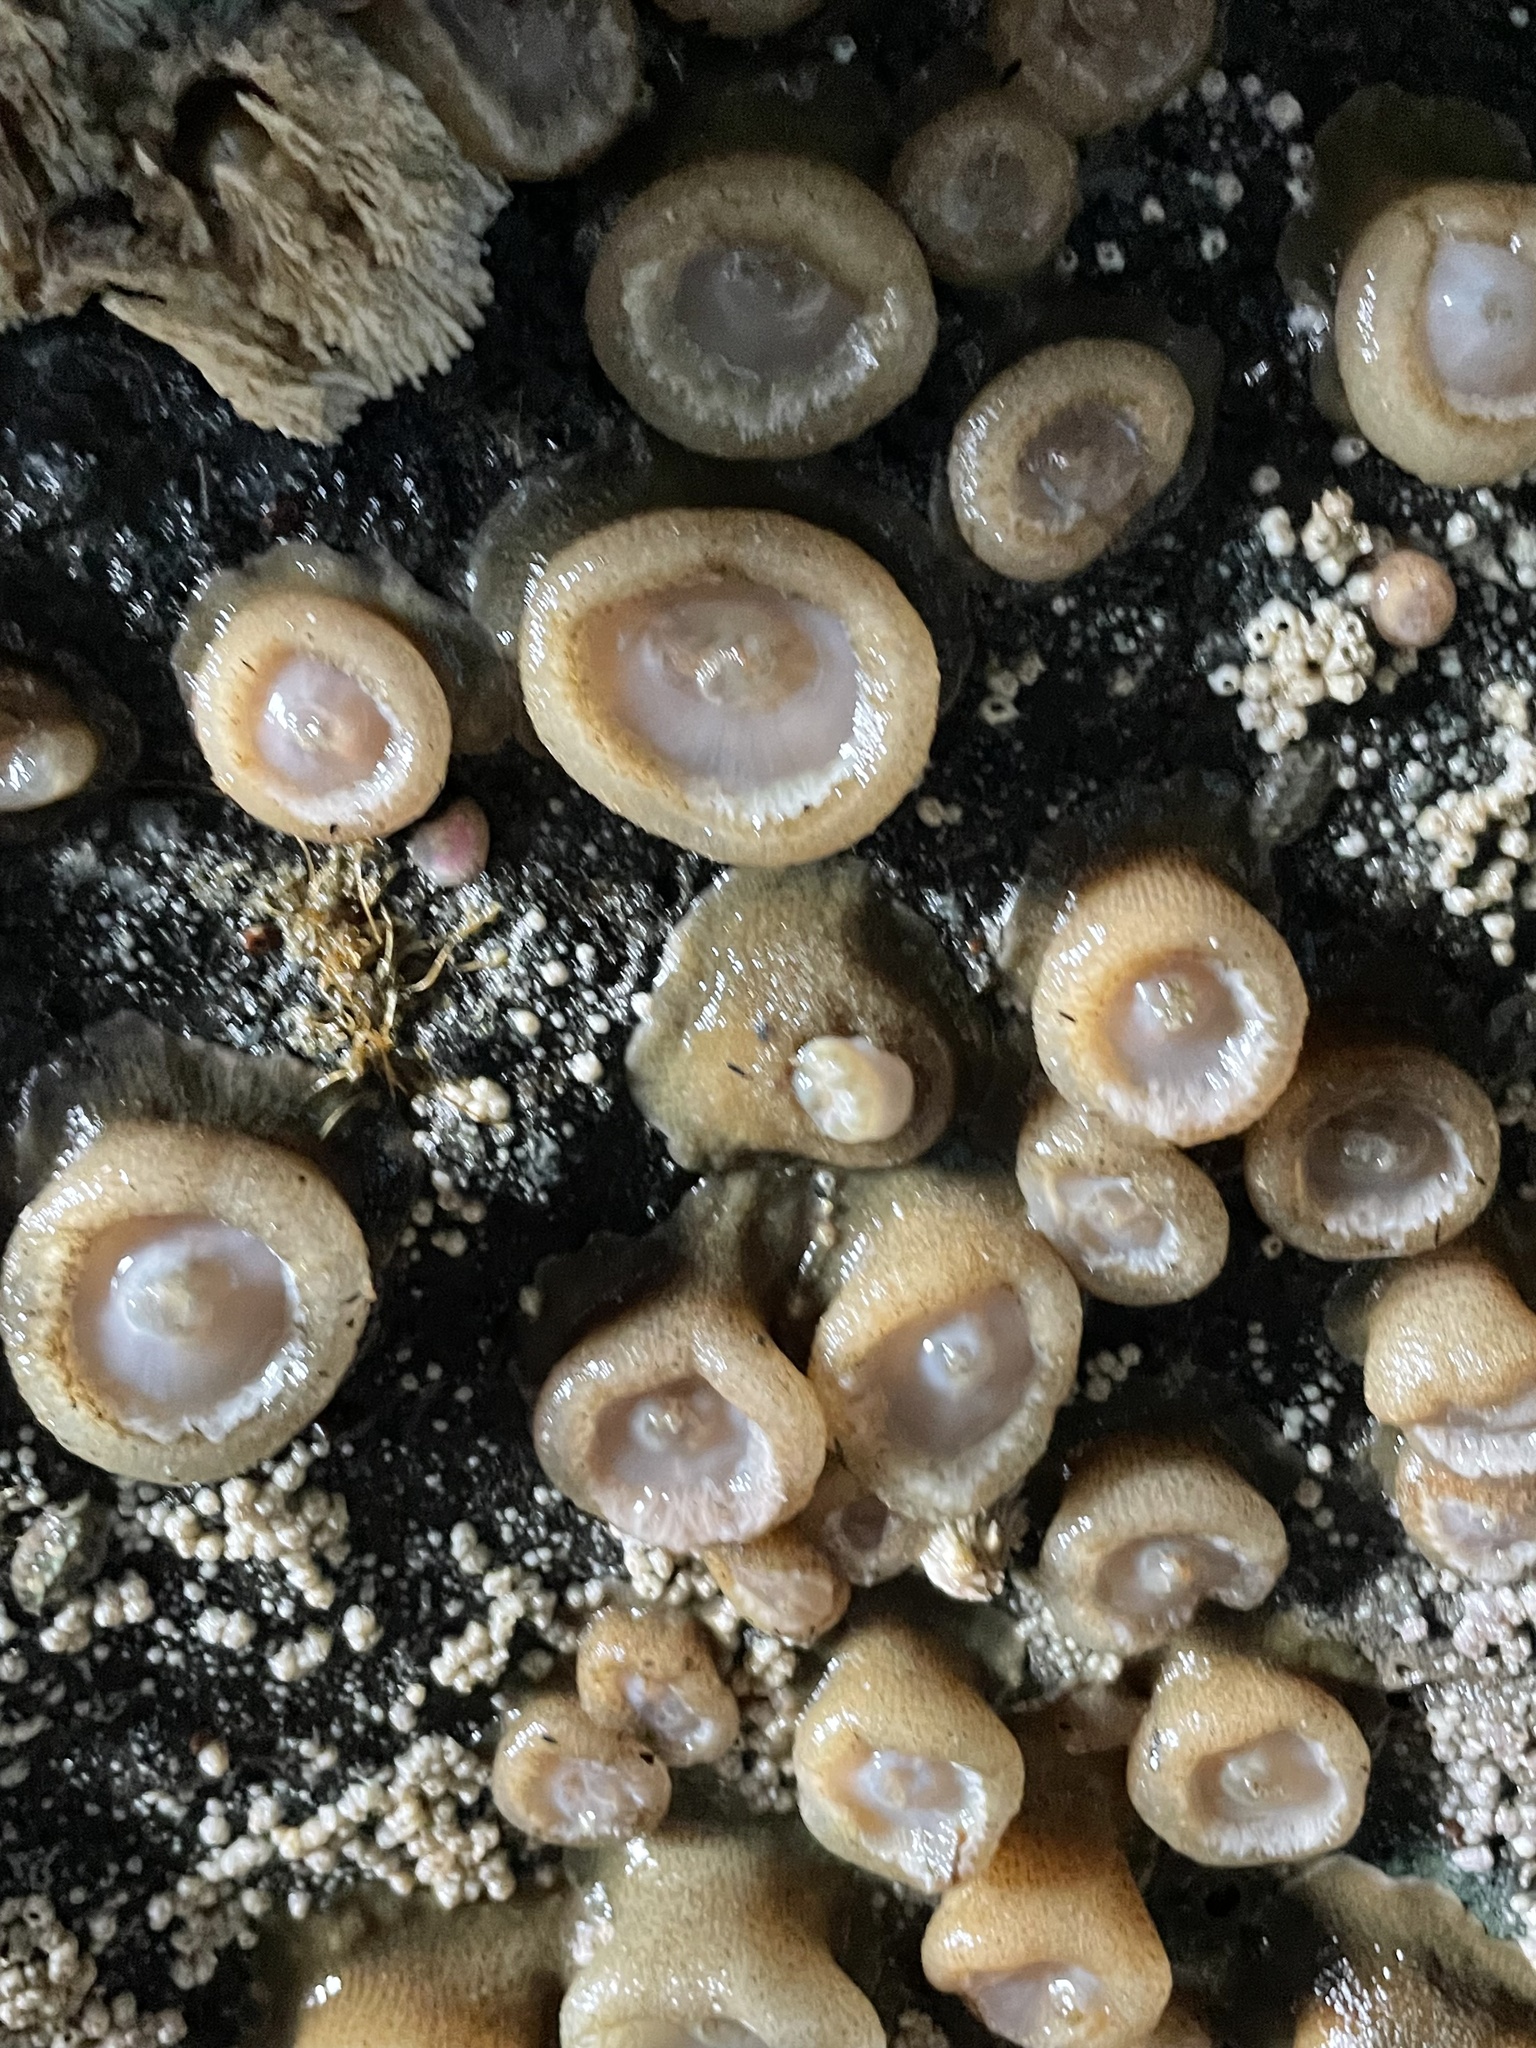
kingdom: Animalia
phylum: Cnidaria
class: Anthozoa
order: Actiniaria
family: Actiniidae
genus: Anthopleura
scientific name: Anthopleura elegantissima
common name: Clonal anemone
